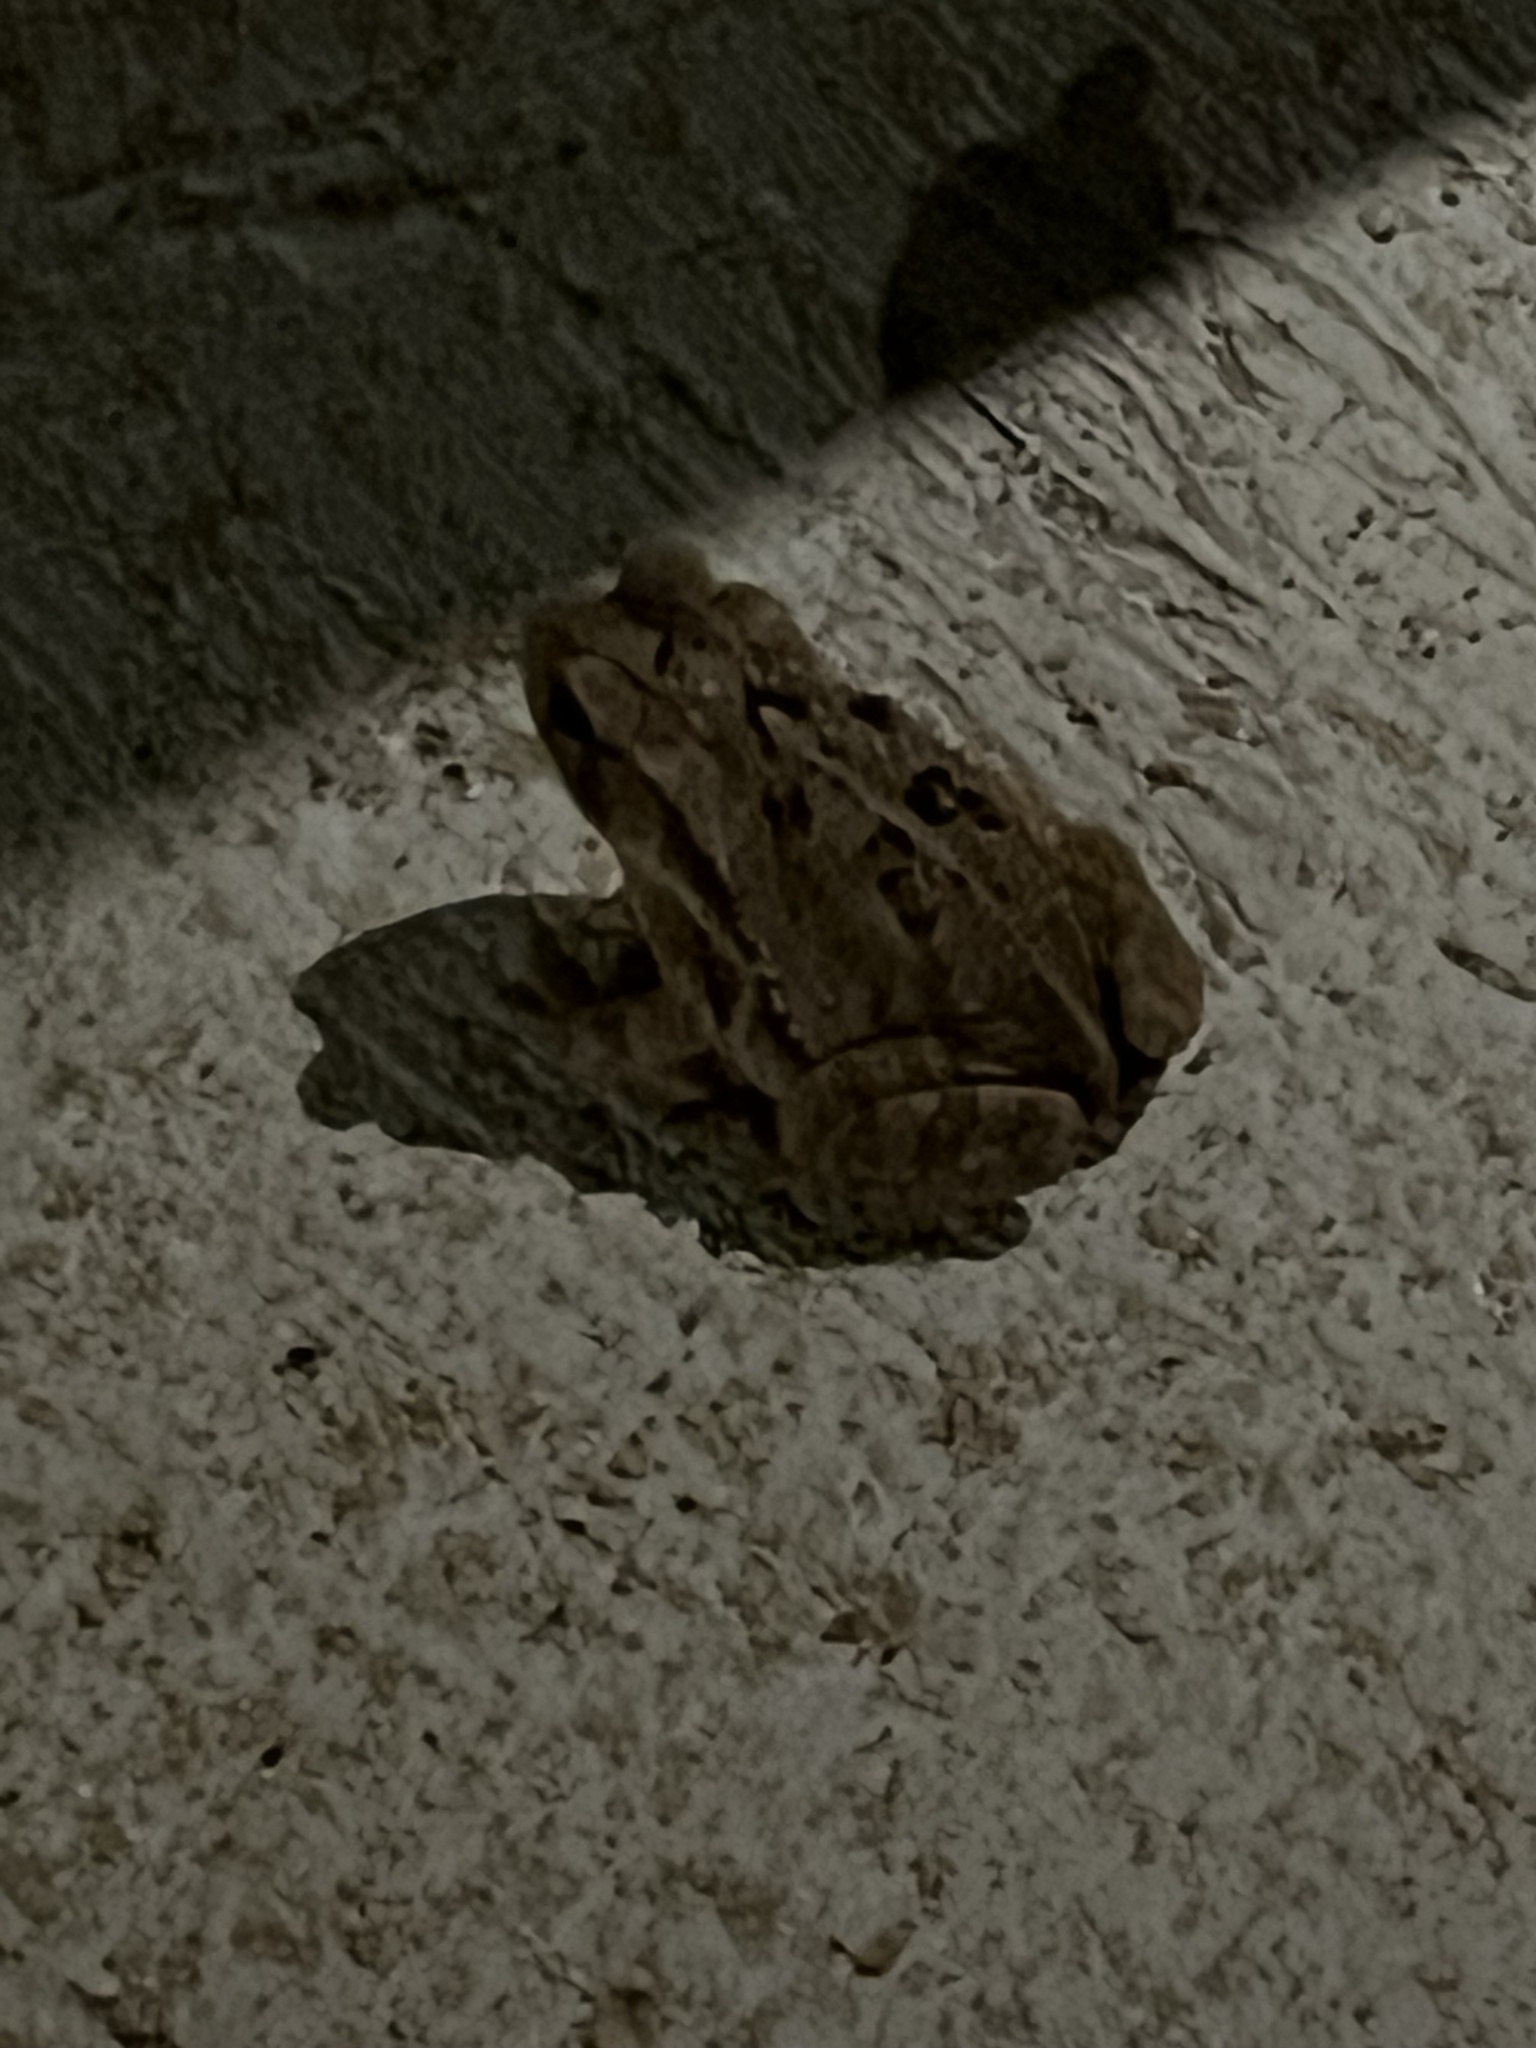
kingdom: Animalia
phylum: Chordata
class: Amphibia
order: Anura
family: Bufonidae
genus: Incilius
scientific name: Incilius valliceps
